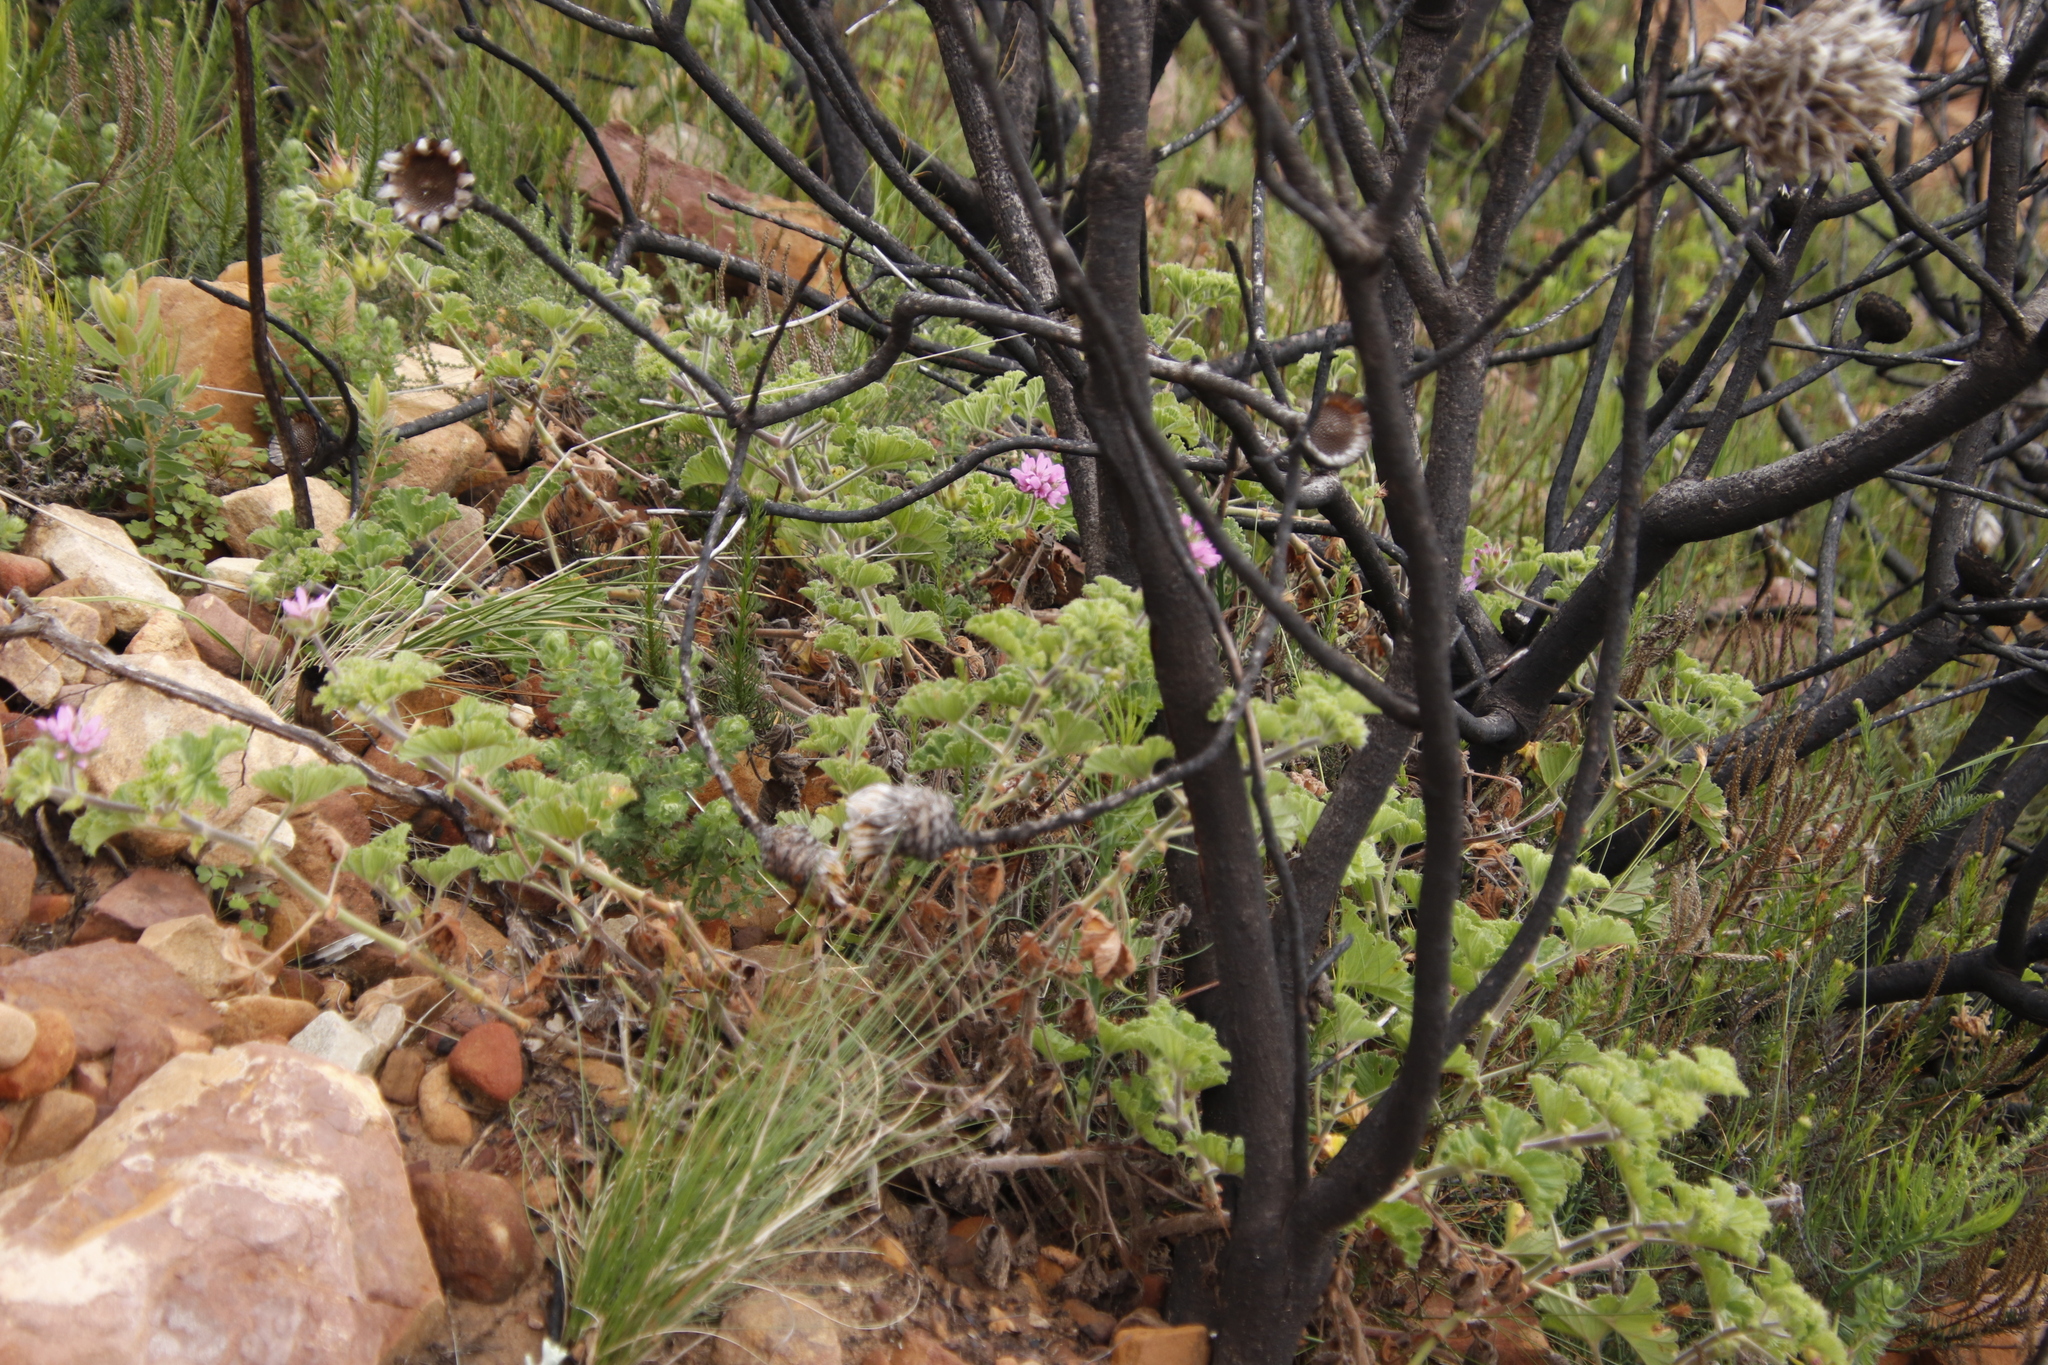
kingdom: Plantae
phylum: Tracheophyta
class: Magnoliopsida
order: Geraniales
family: Geraniaceae
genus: Pelargonium
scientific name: Pelargonium capitatum
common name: Rose scented geranium
